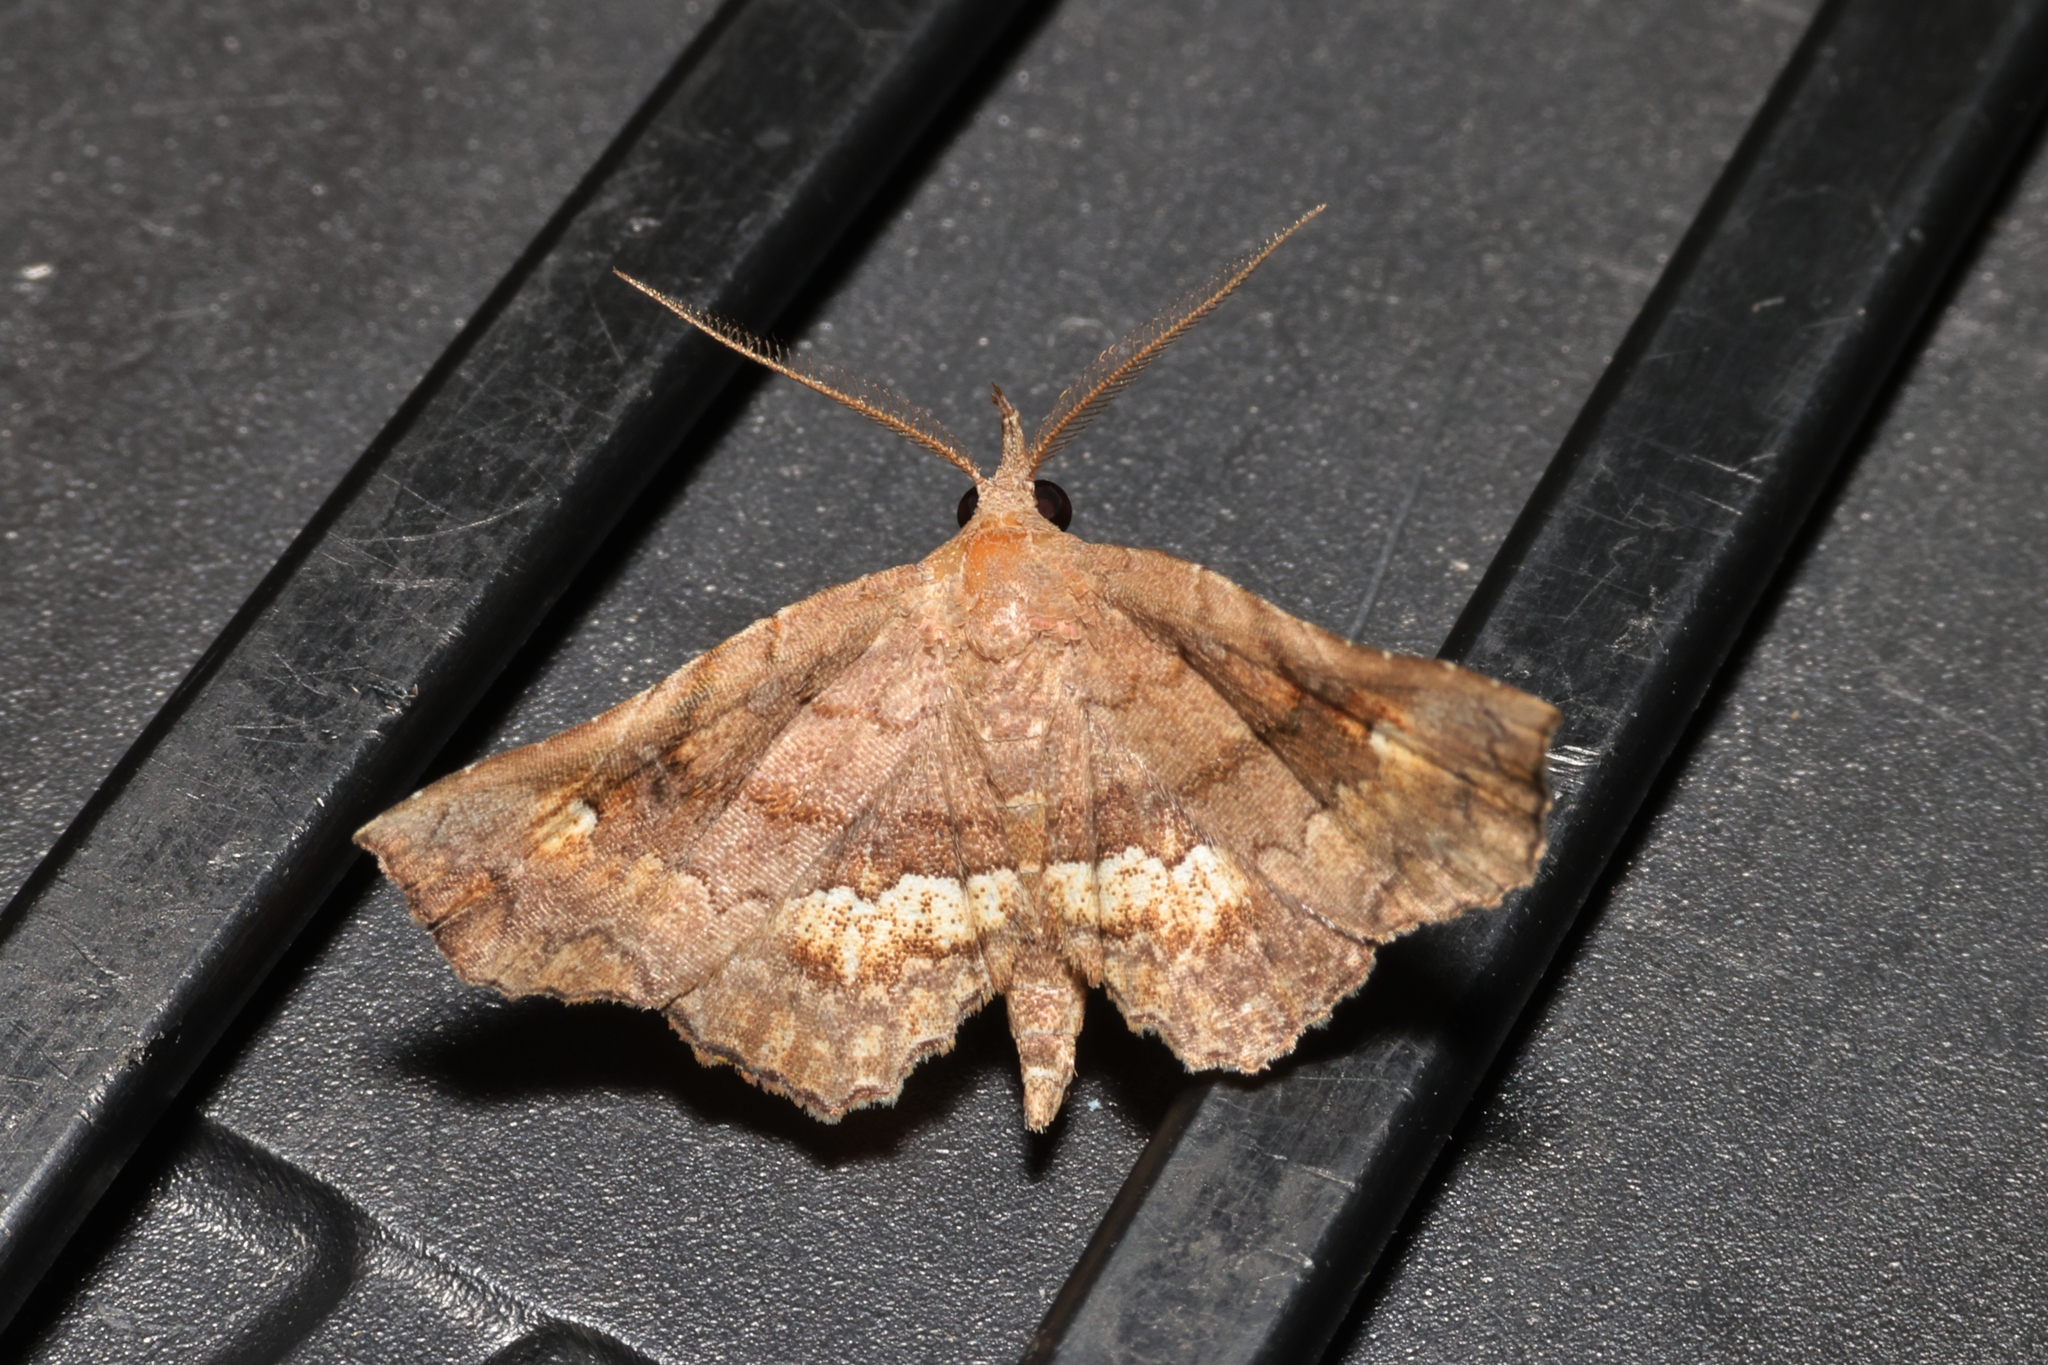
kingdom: Animalia
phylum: Arthropoda
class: Insecta
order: Lepidoptera
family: Erebidae
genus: Throana
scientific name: Throana pectinifer
